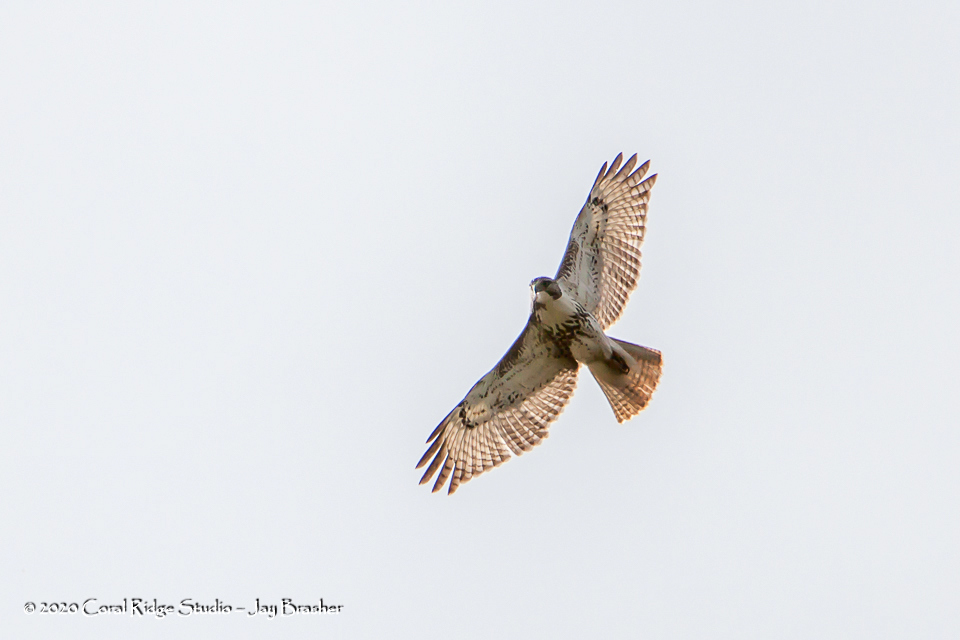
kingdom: Animalia
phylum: Chordata
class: Aves
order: Accipitriformes
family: Accipitridae
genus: Buteo
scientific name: Buteo jamaicensis
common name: Red-tailed hawk
